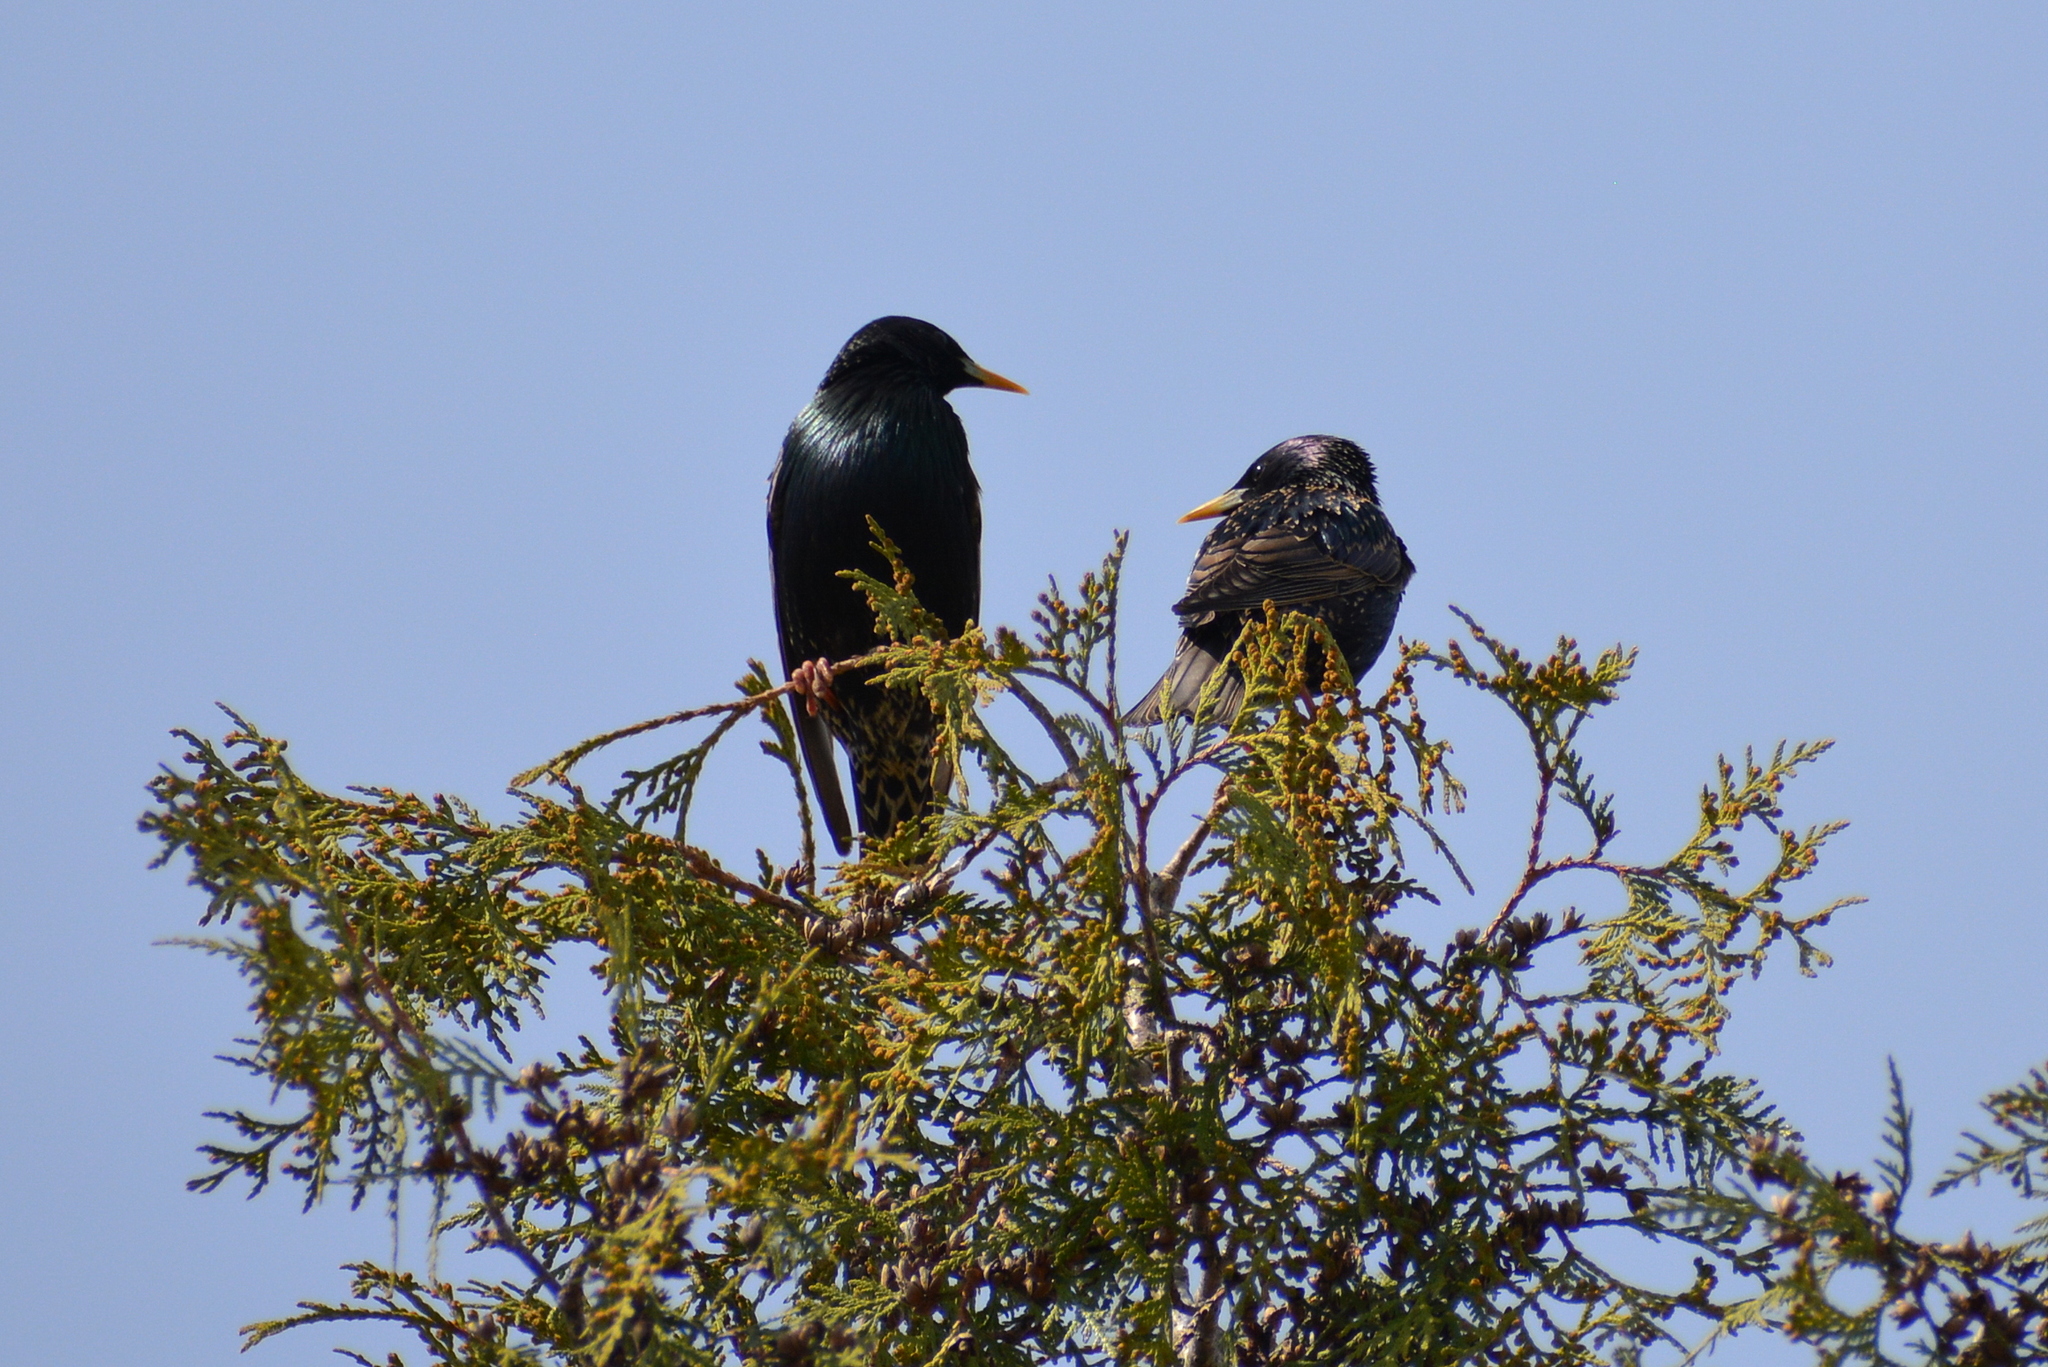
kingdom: Animalia
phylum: Chordata
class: Aves
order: Passeriformes
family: Sturnidae
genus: Sturnus
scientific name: Sturnus vulgaris
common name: Common starling
